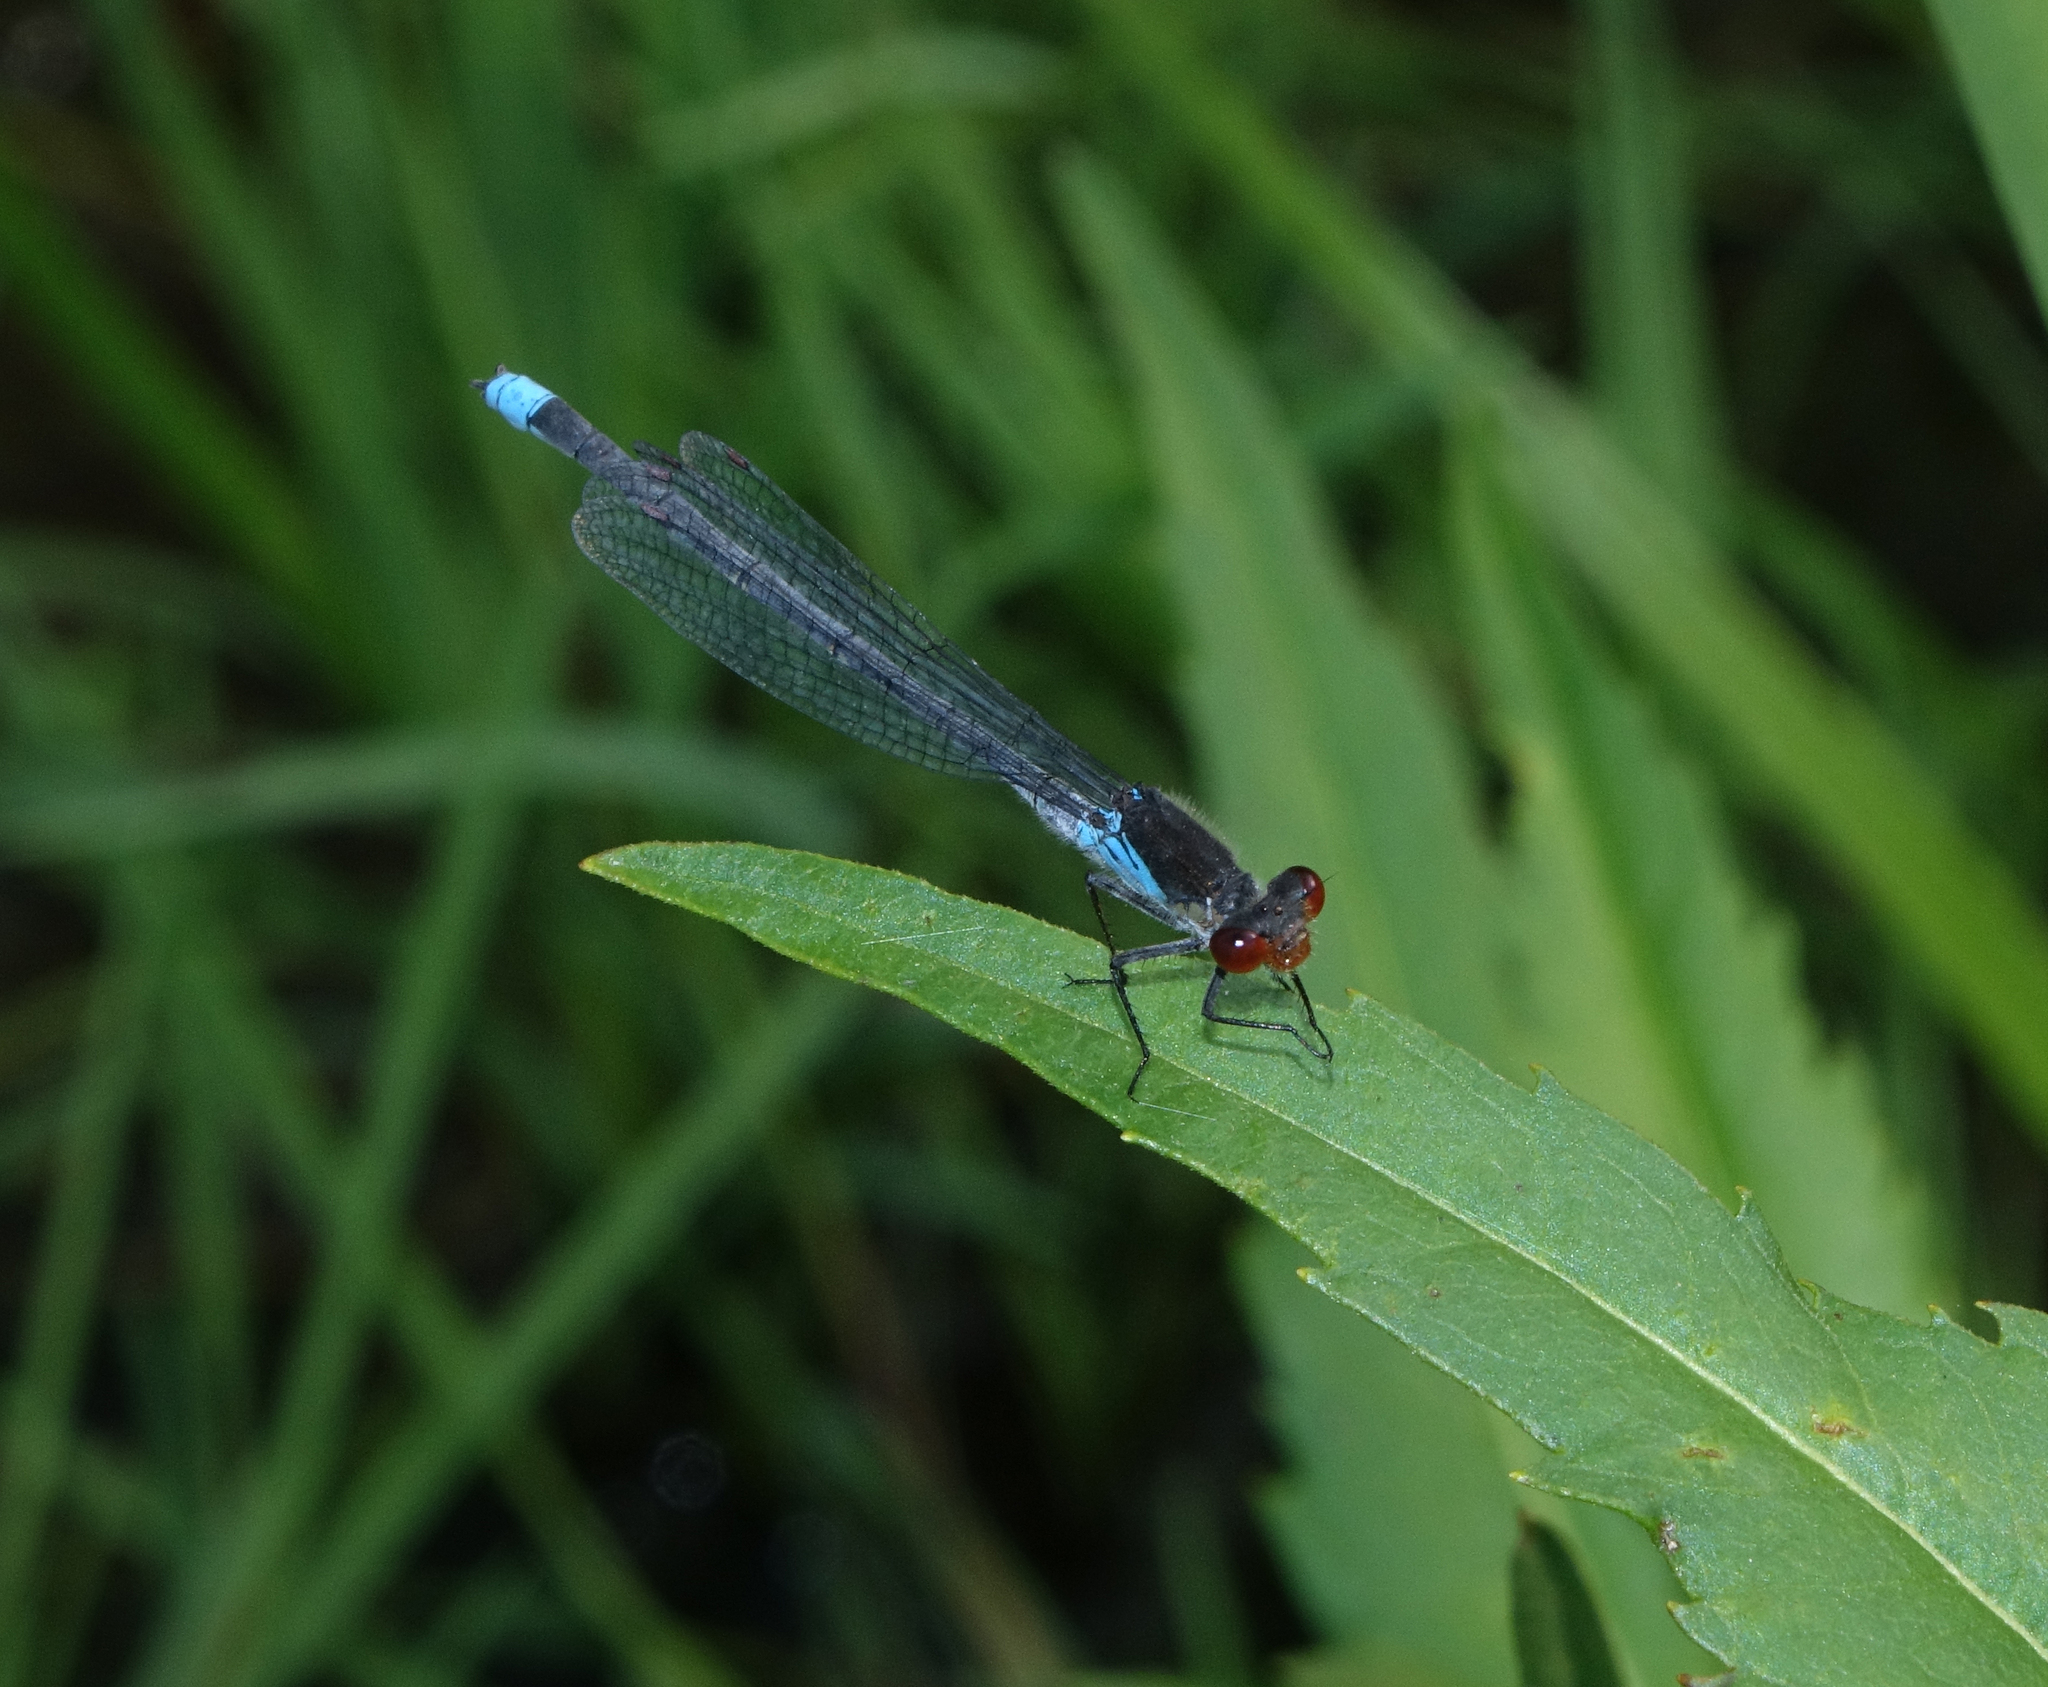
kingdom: Animalia
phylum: Arthropoda
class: Insecta
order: Odonata
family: Coenagrionidae
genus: Erythromma
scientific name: Erythromma najas
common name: Red-eyed damselfly
